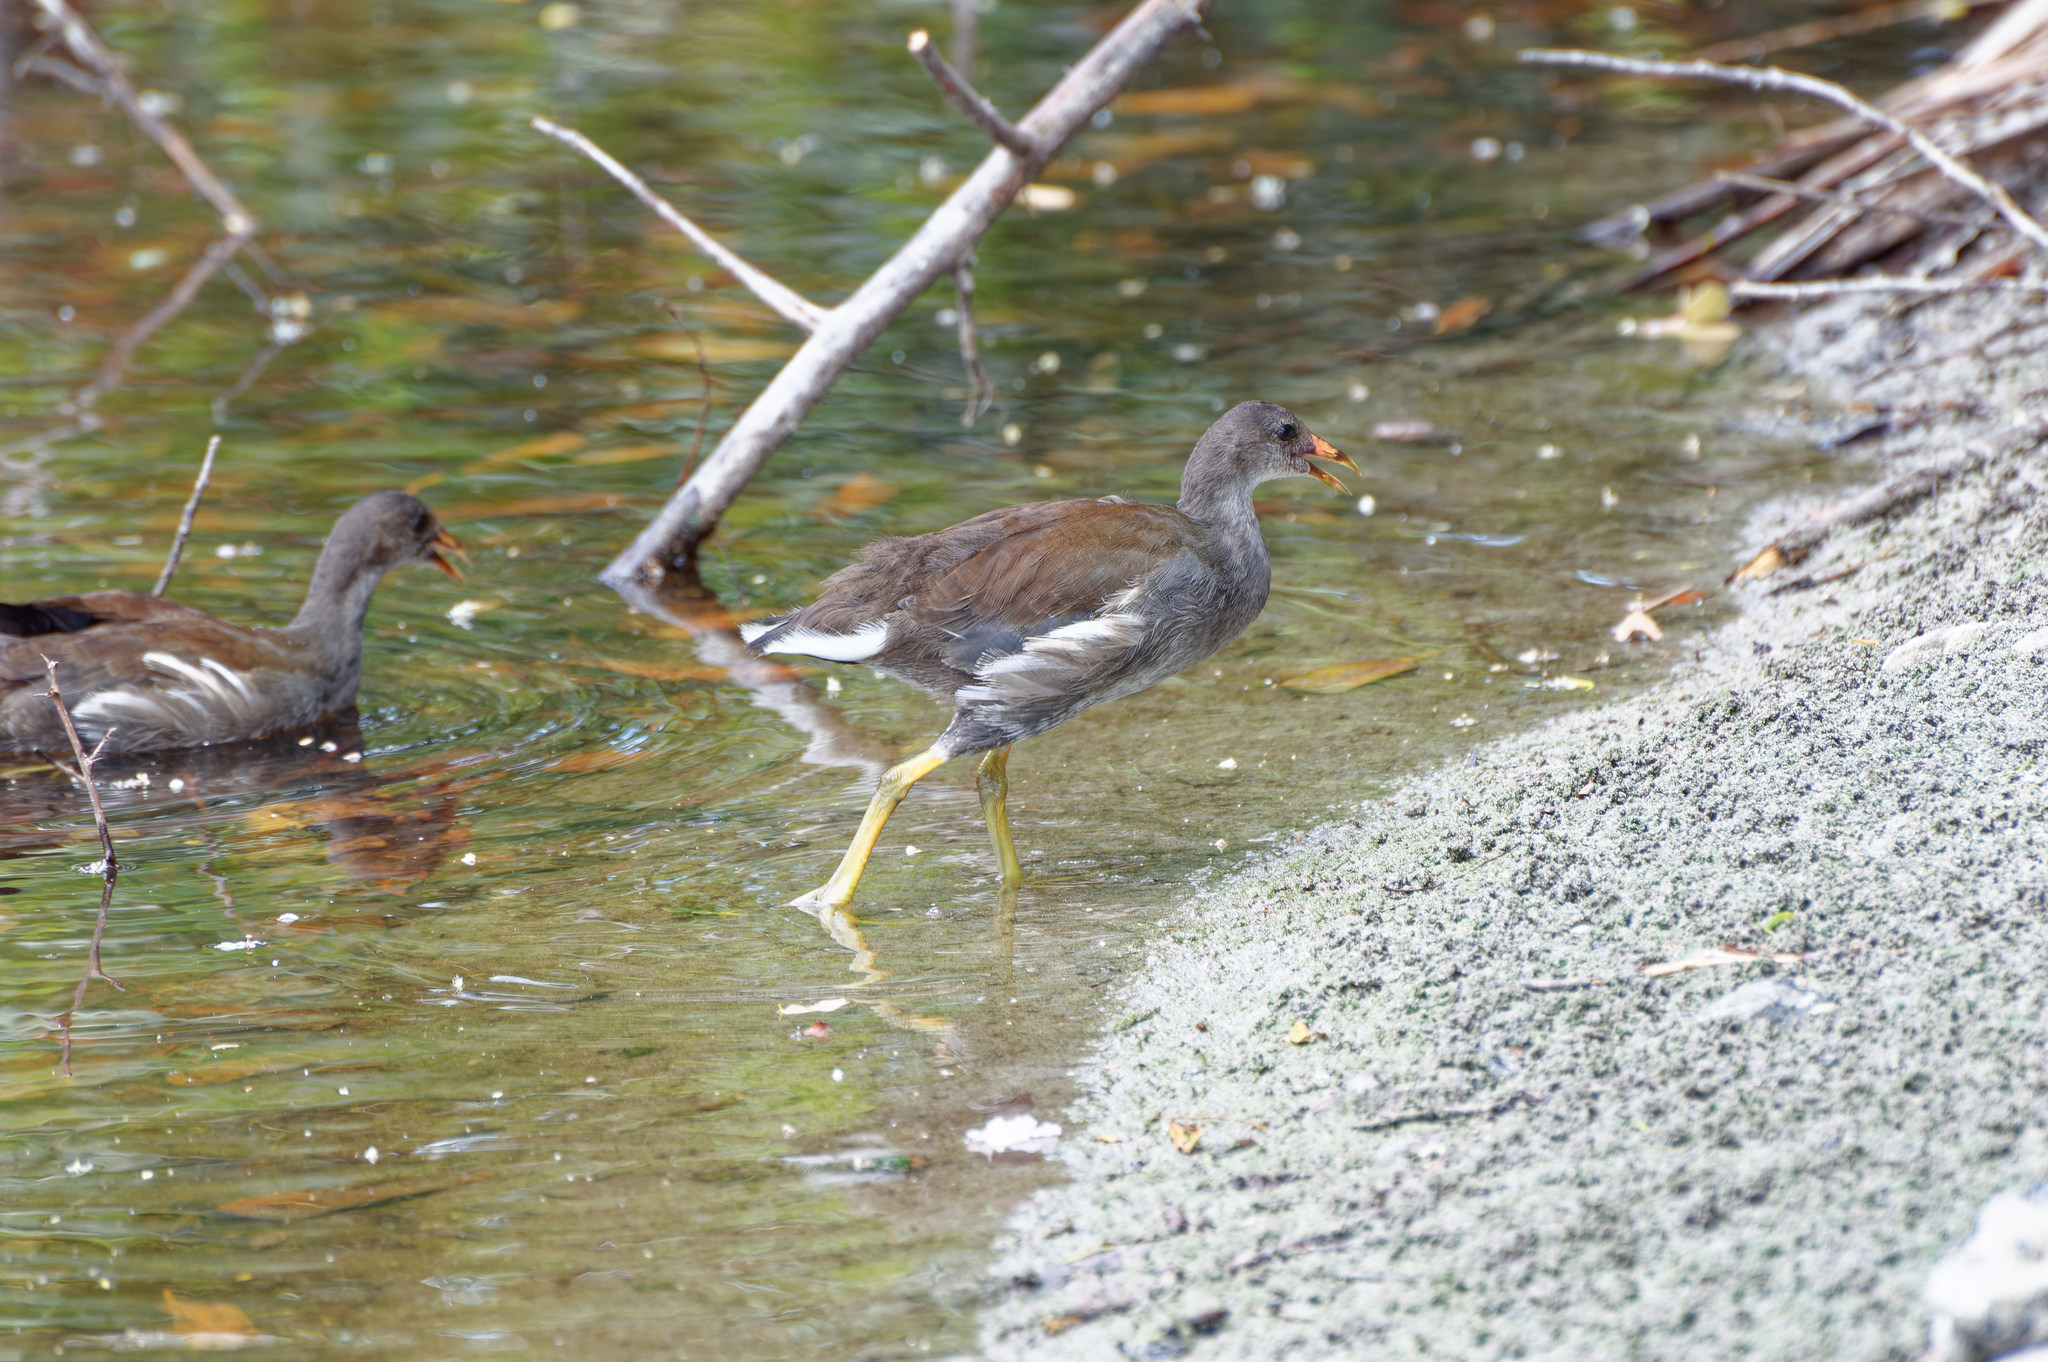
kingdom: Animalia
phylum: Chordata
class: Aves
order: Gruiformes
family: Rallidae
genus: Gallinula
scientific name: Gallinula chloropus
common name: Common moorhen
